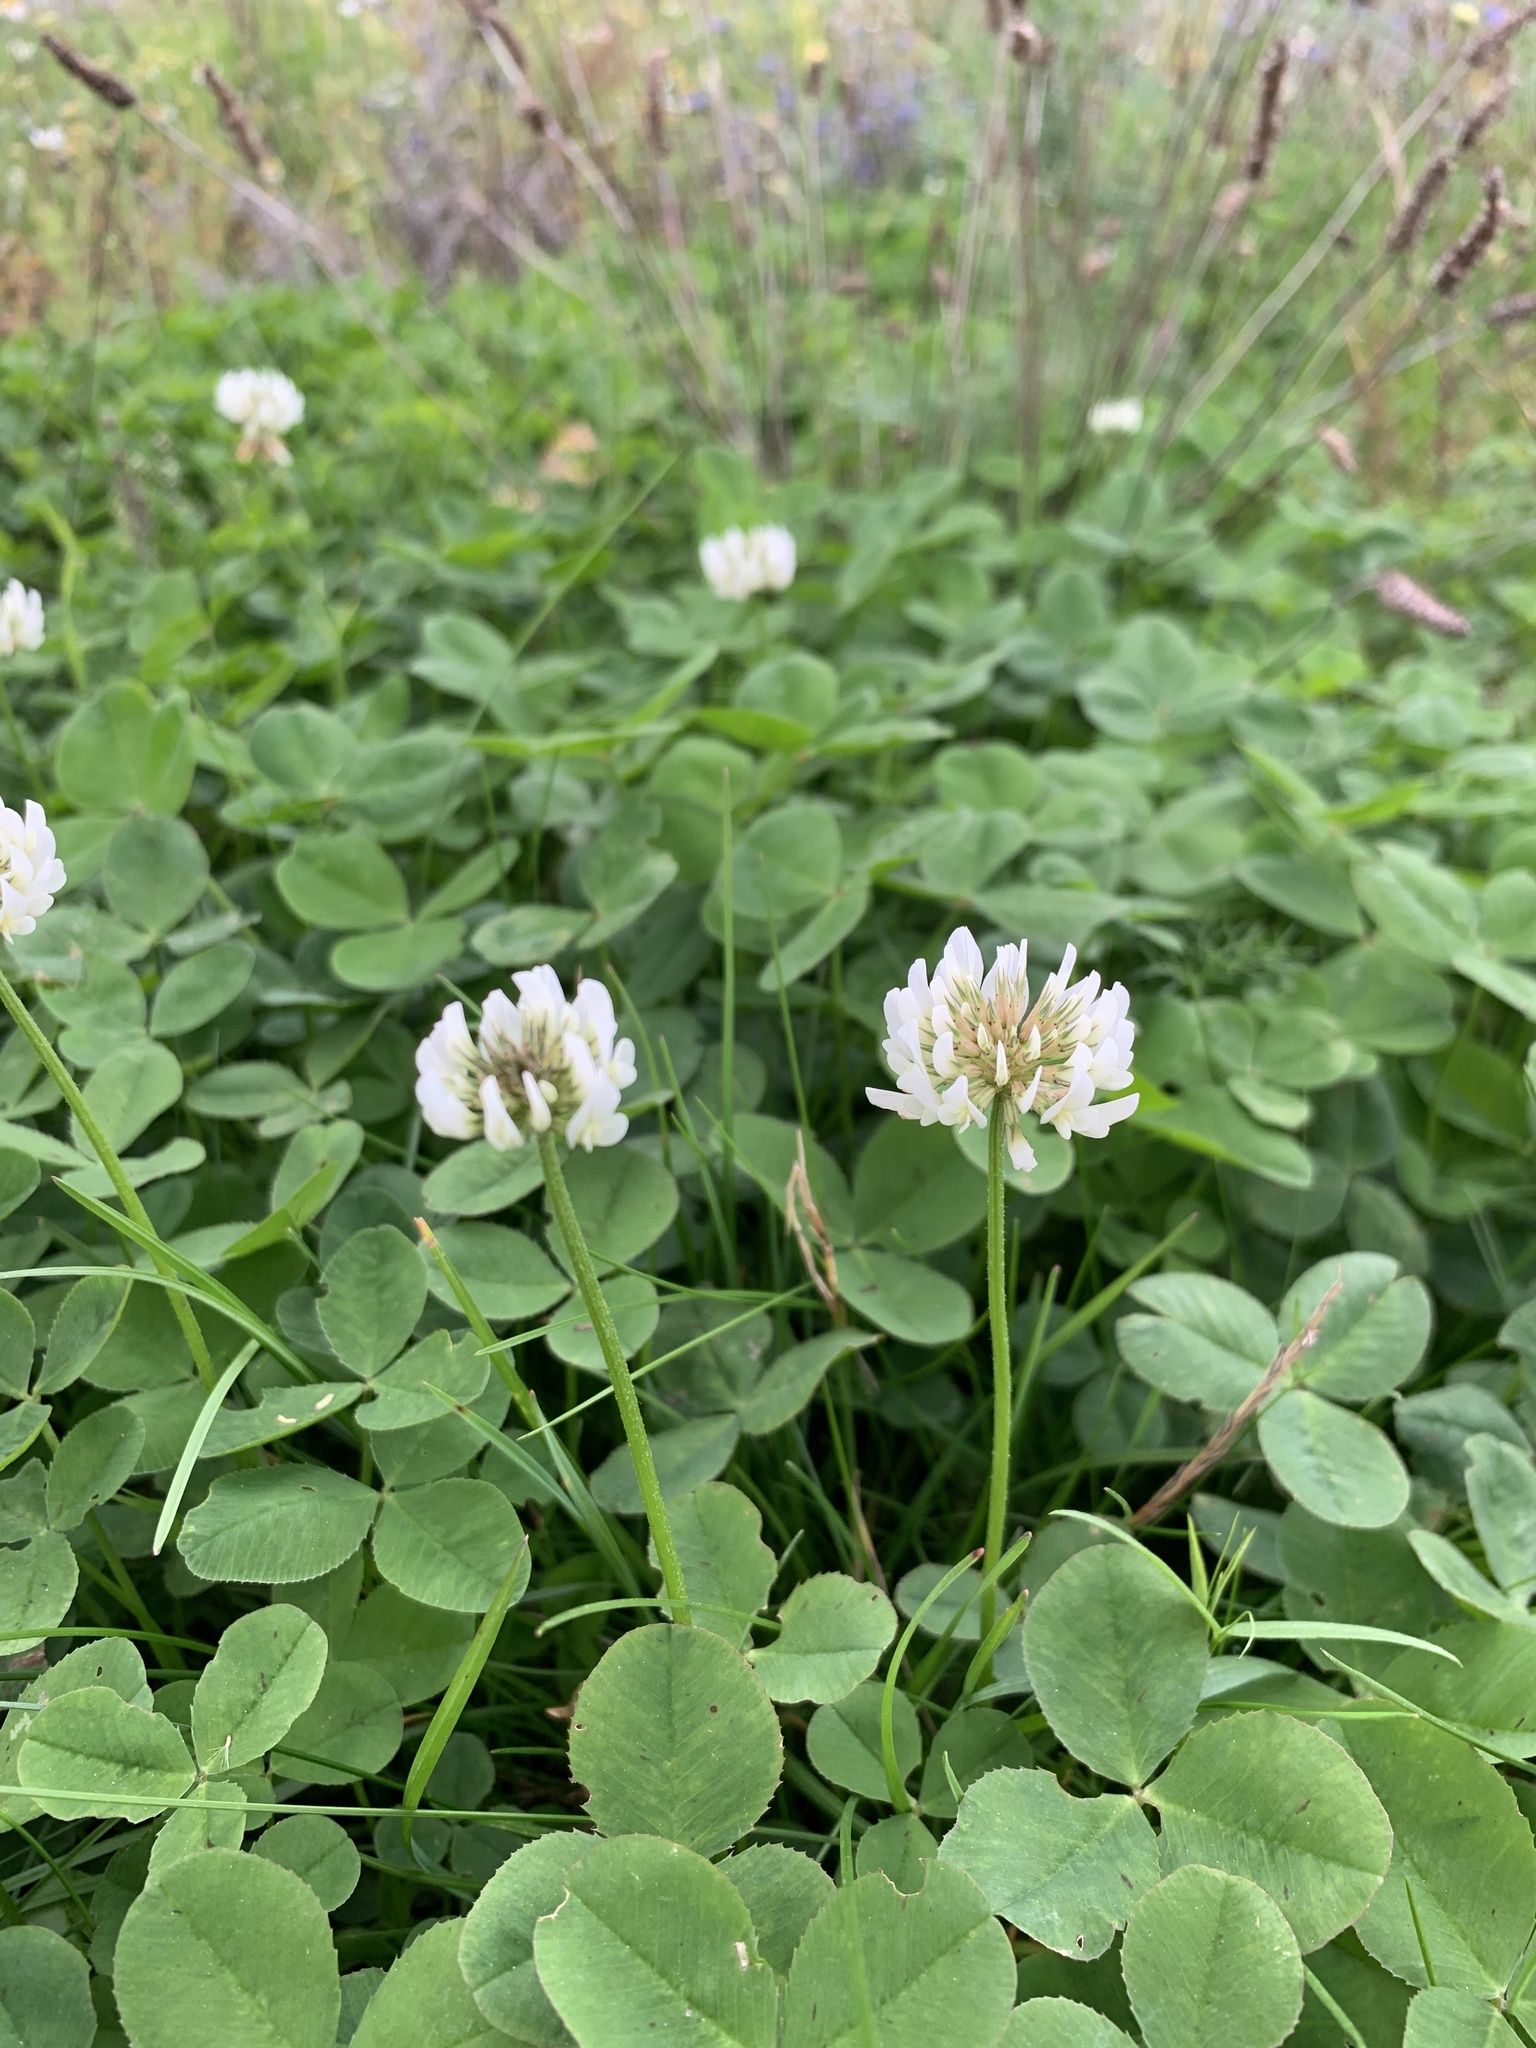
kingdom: Plantae
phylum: Tracheophyta
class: Magnoliopsida
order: Fabales
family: Fabaceae
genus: Trifolium
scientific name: Trifolium repens
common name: White clover
